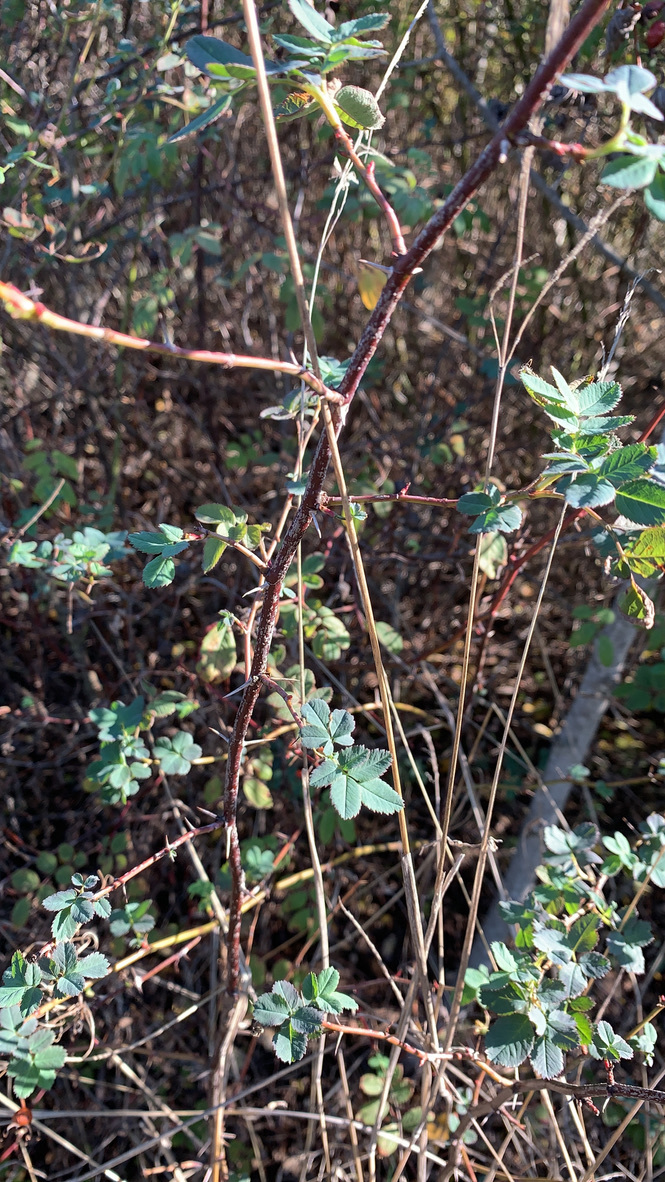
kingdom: Plantae
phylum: Tracheophyta
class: Magnoliopsida
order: Rosales
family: Rosaceae
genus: Rosa
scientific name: Rosa nutkana
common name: Nootka rose
